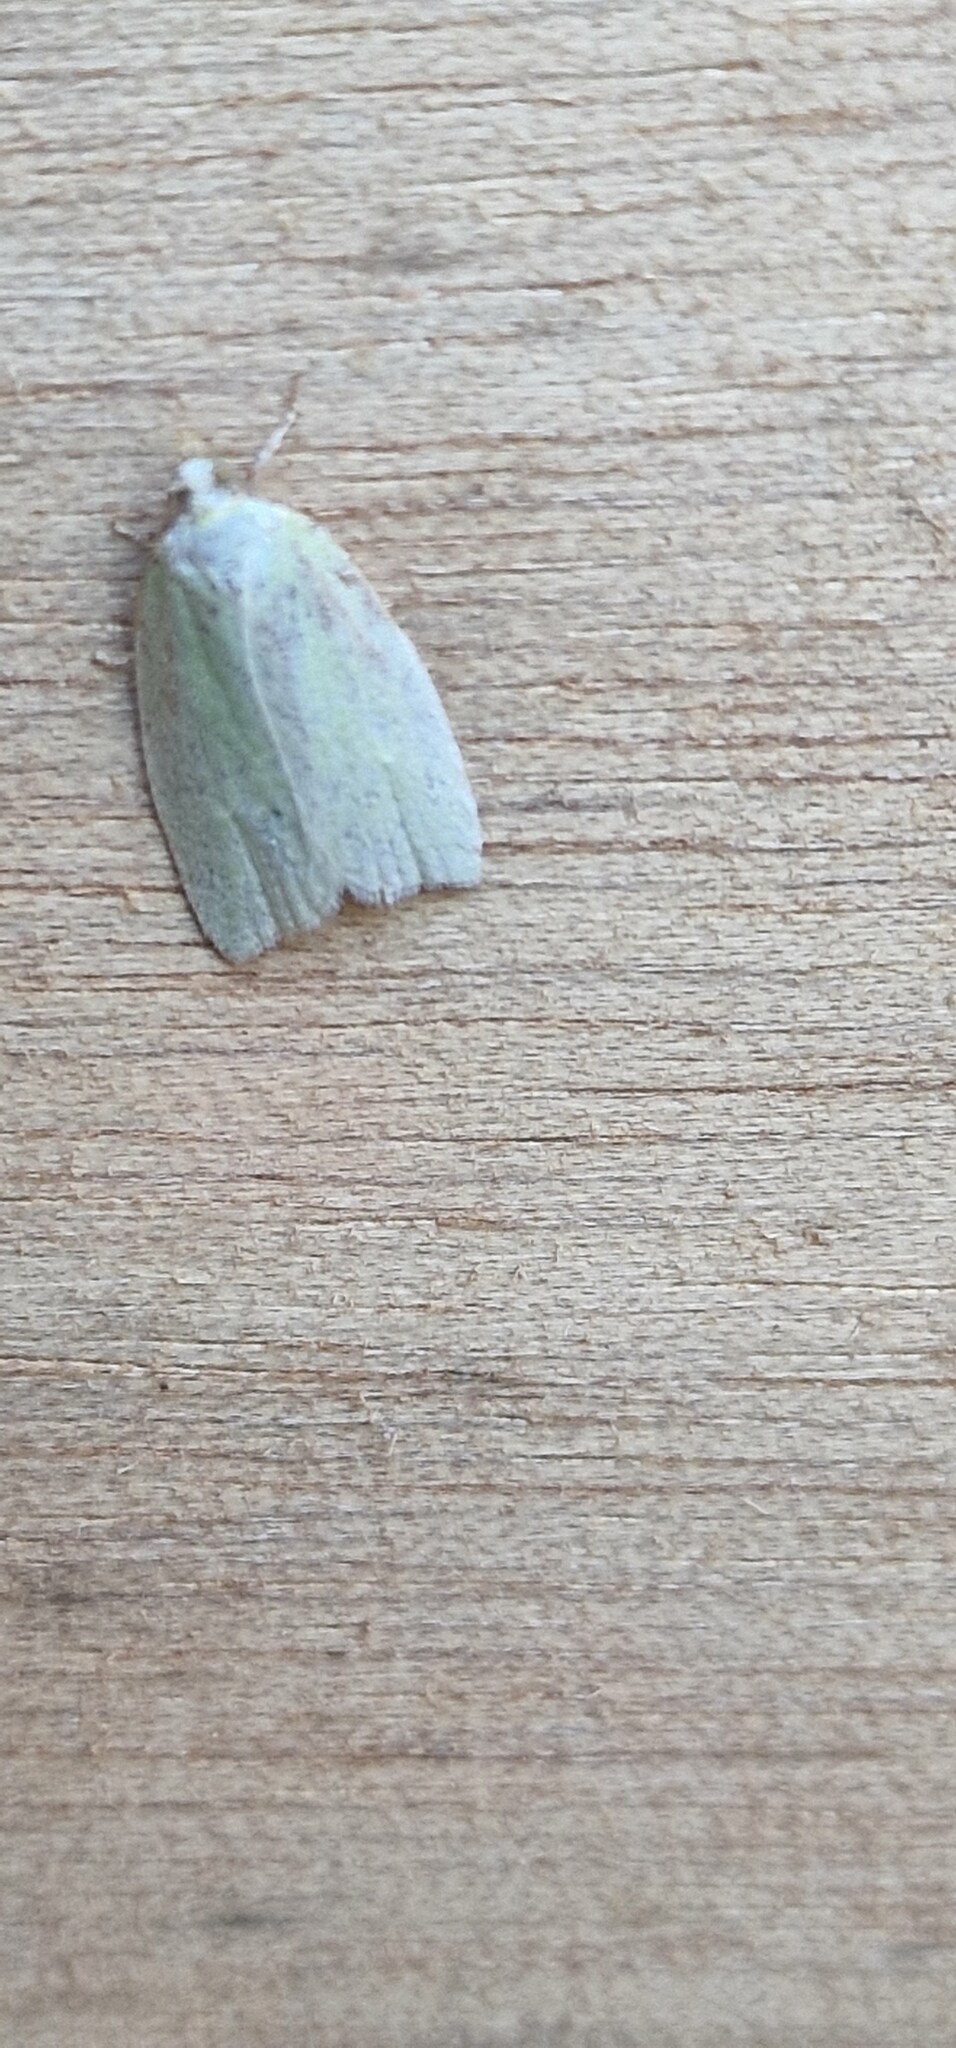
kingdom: Animalia
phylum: Arthropoda
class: Insecta
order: Lepidoptera
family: Tortricidae
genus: Tortrix
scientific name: Tortrix viridana
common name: Green oak tortrix
